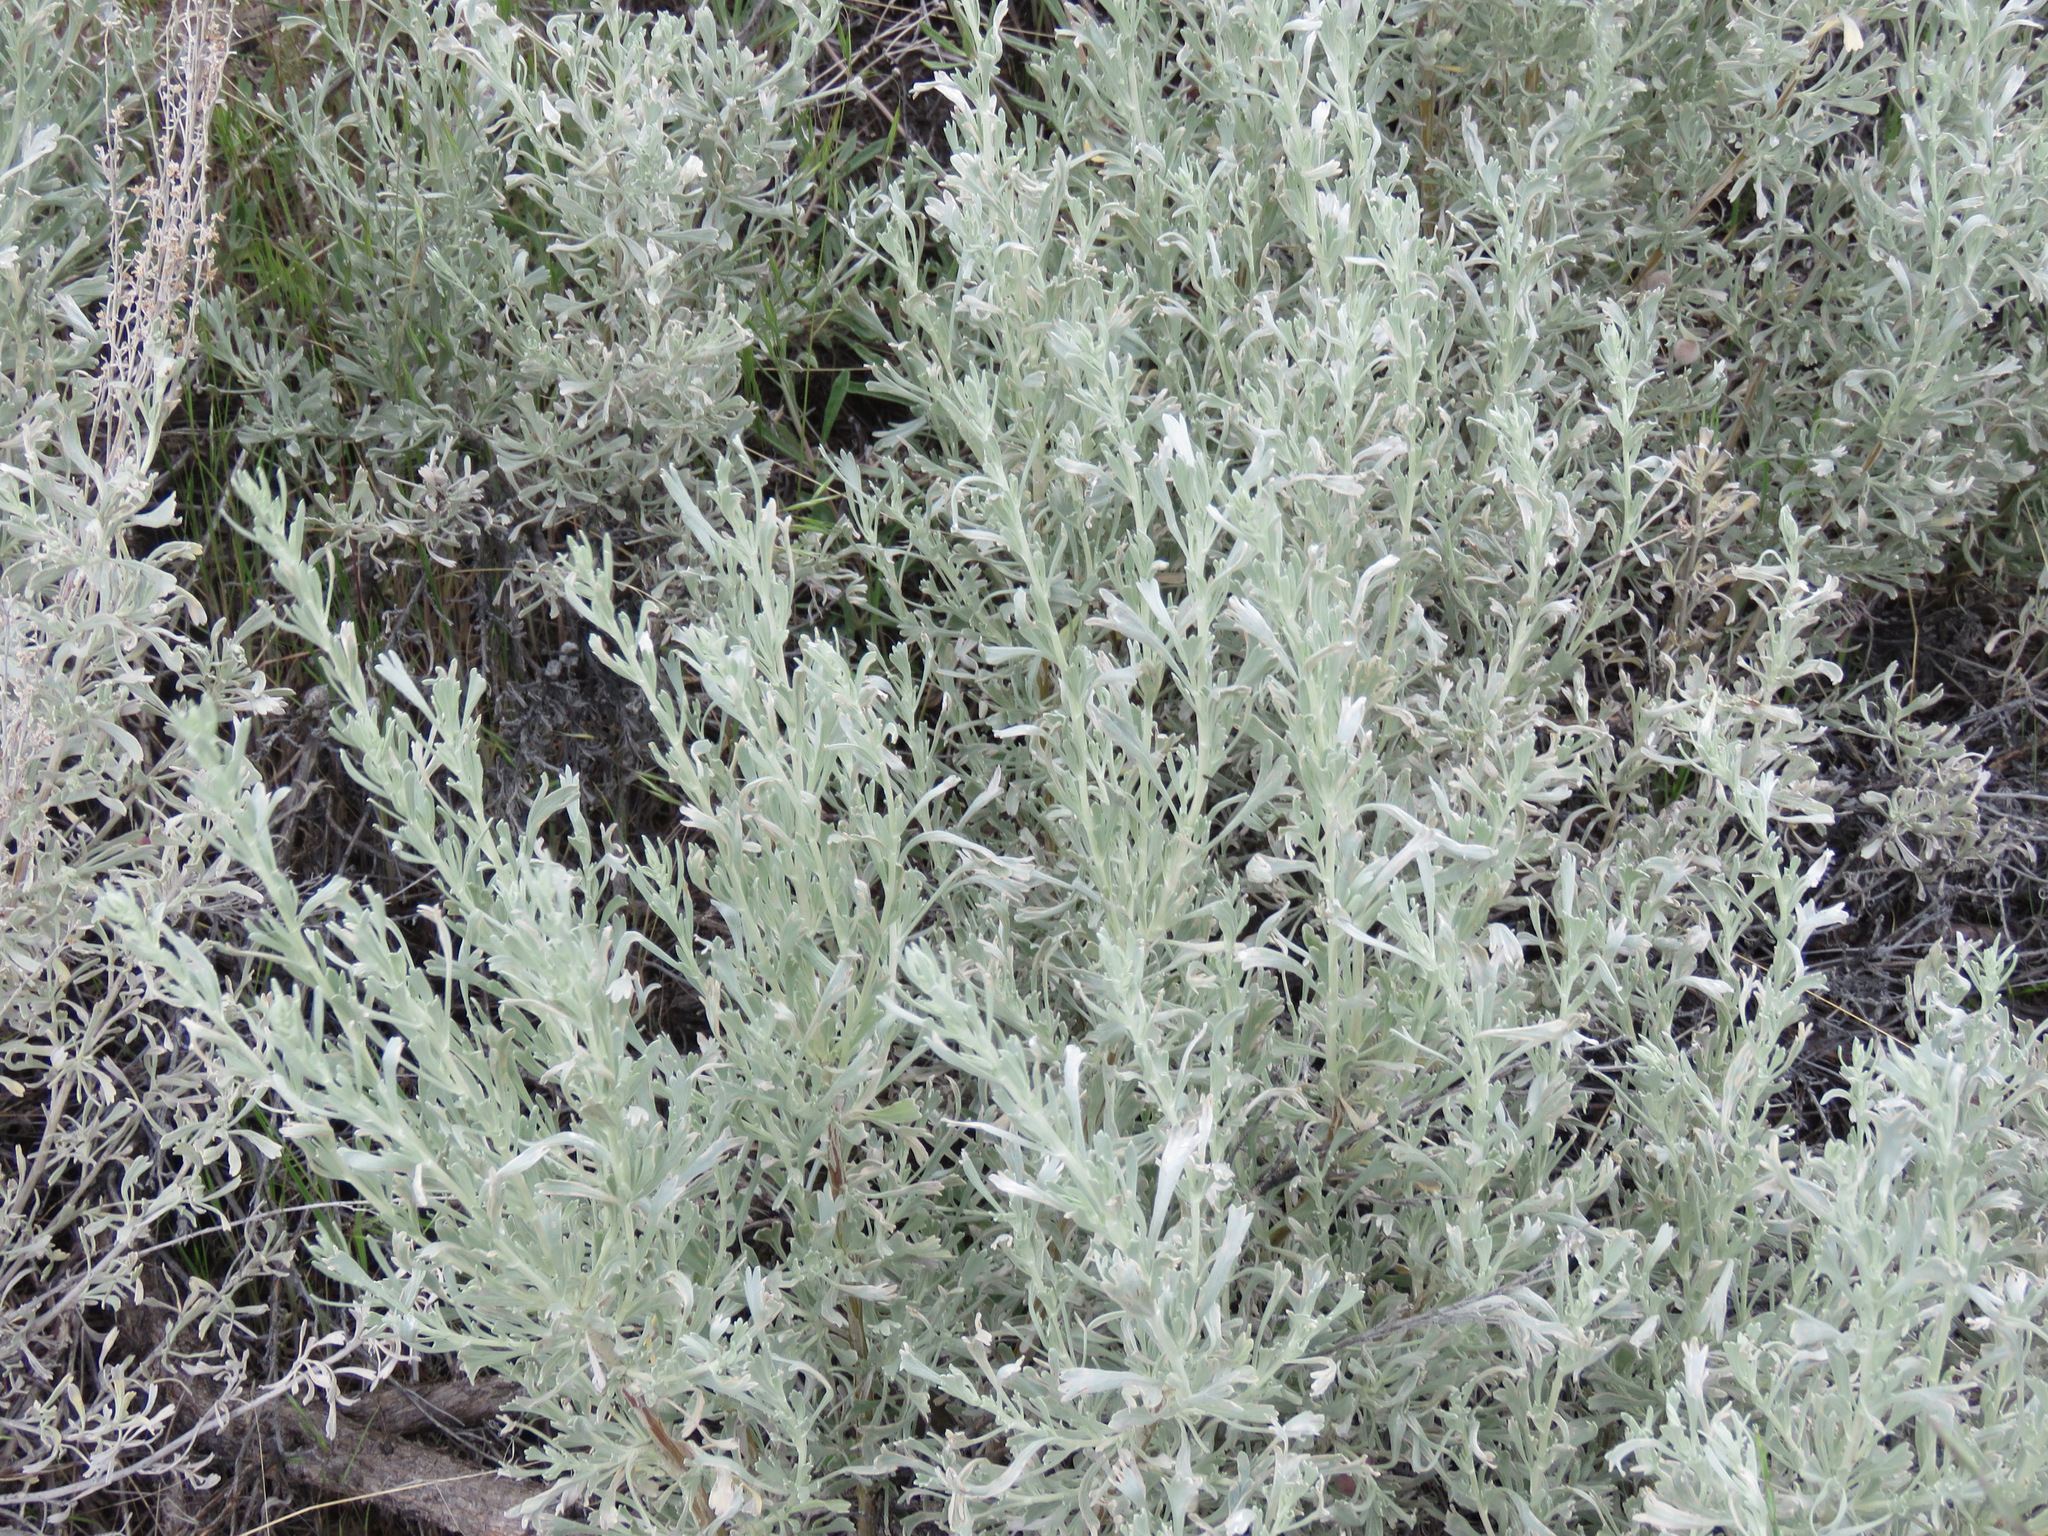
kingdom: Plantae
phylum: Tracheophyta
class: Magnoliopsida
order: Asterales
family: Asteraceae
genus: Artemisia
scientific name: Artemisia tridentata
